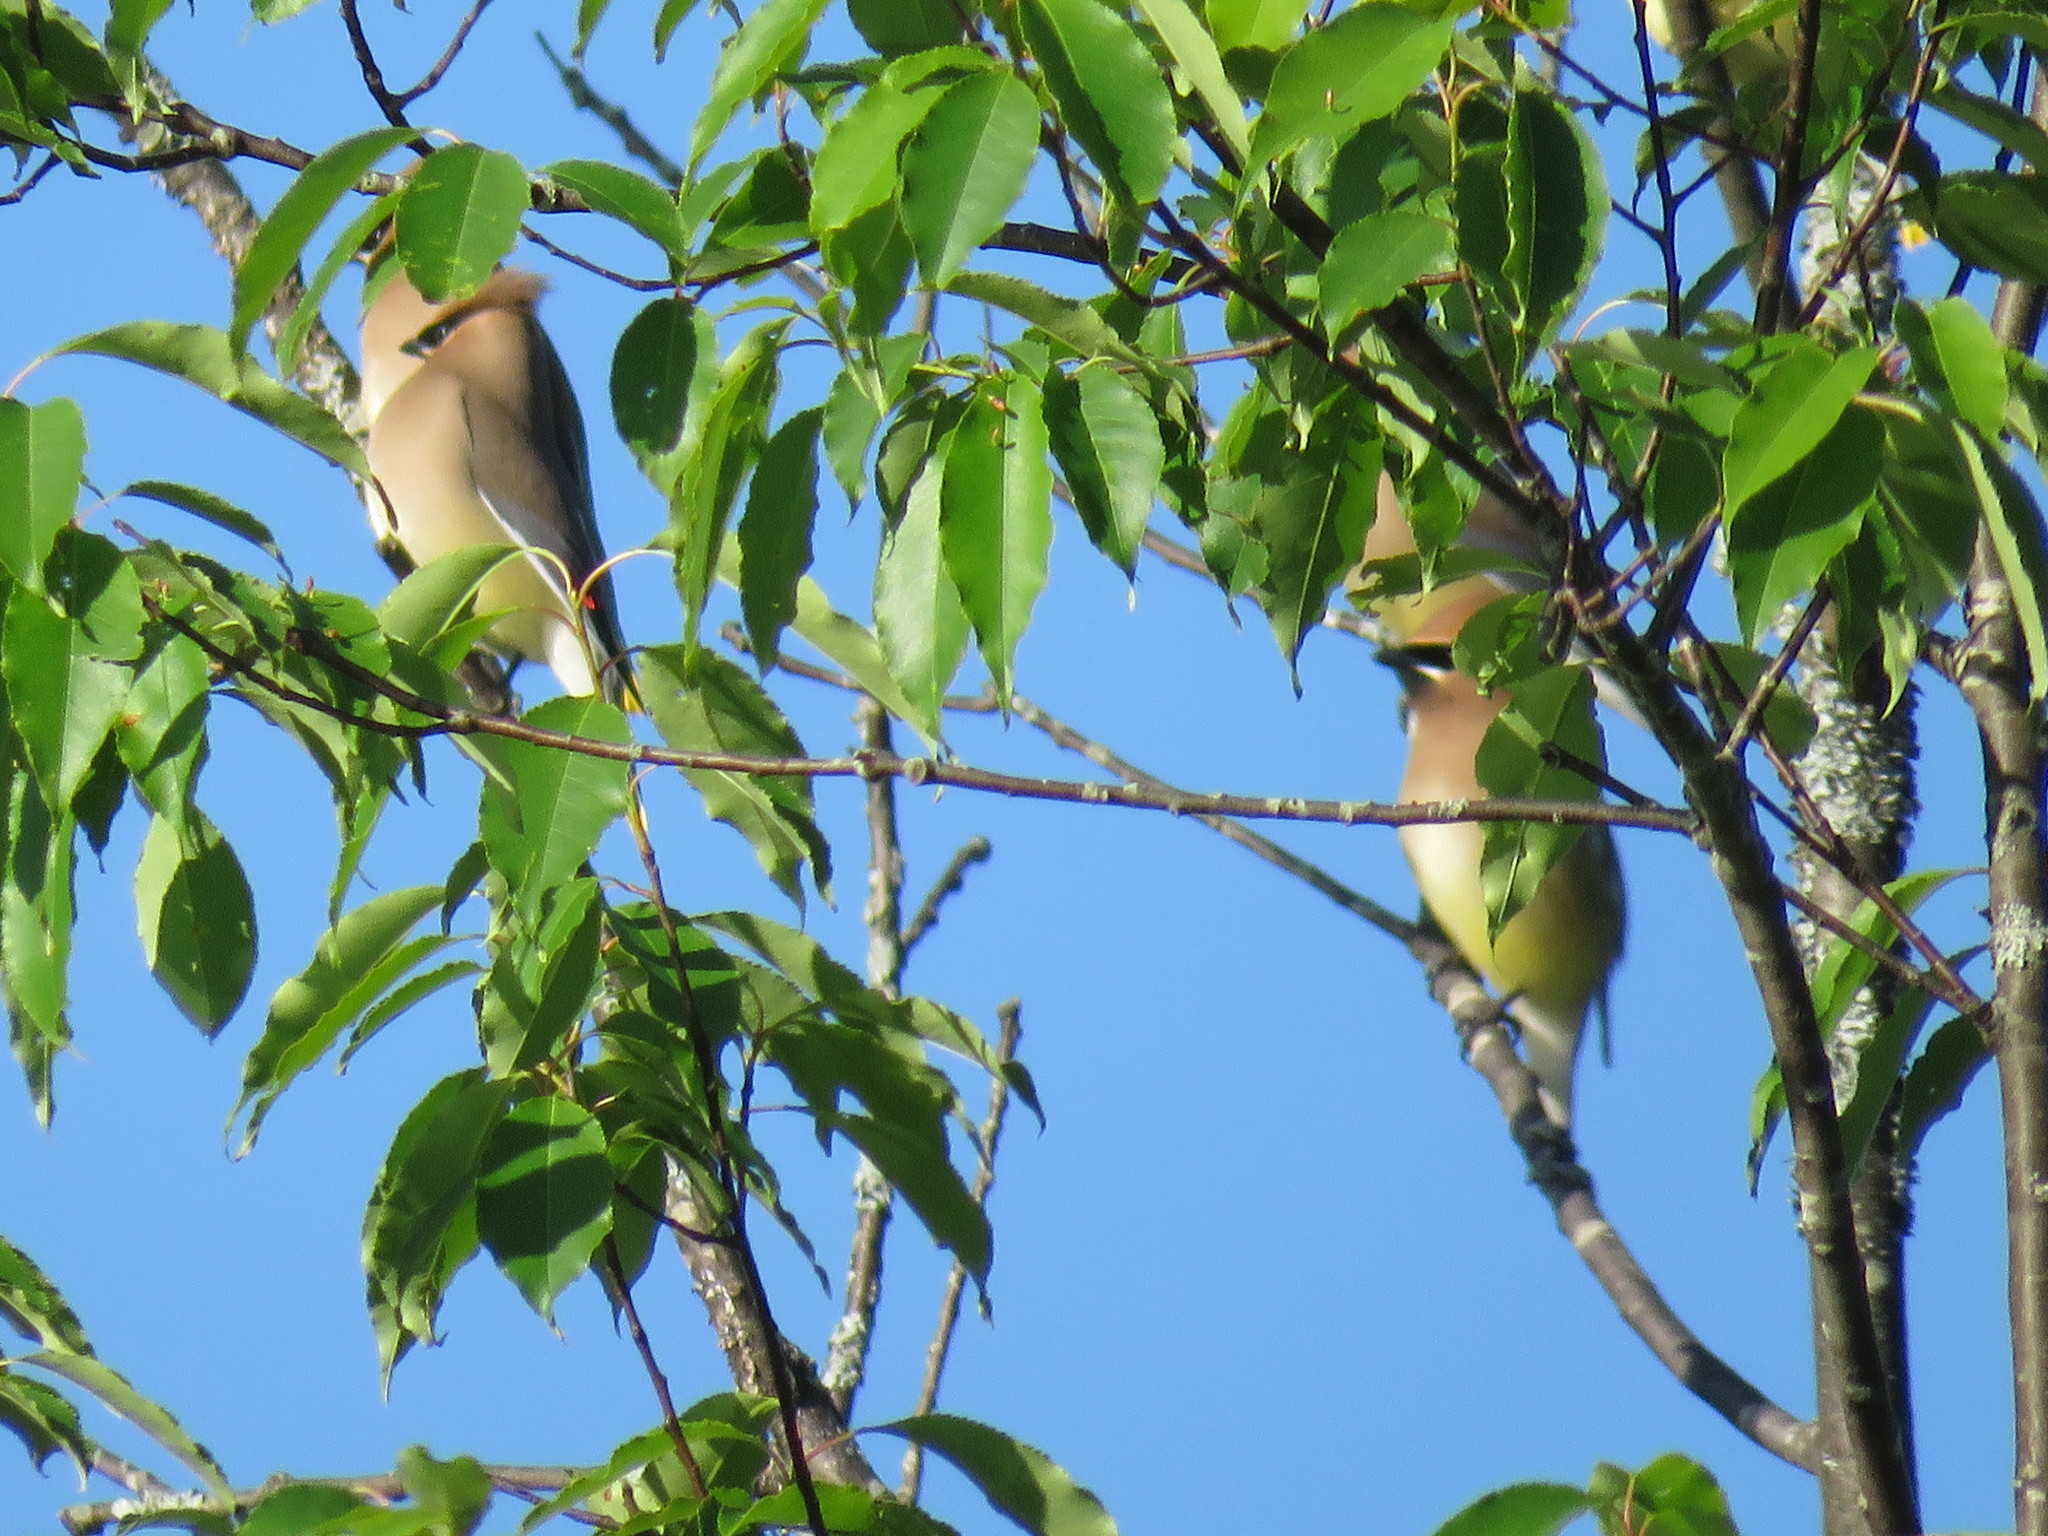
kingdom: Animalia
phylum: Chordata
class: Aves
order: Passeriformes
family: Bombycillidae
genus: Bombycilla
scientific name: Bombycilla cedrorum
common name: Cedar waxwing
